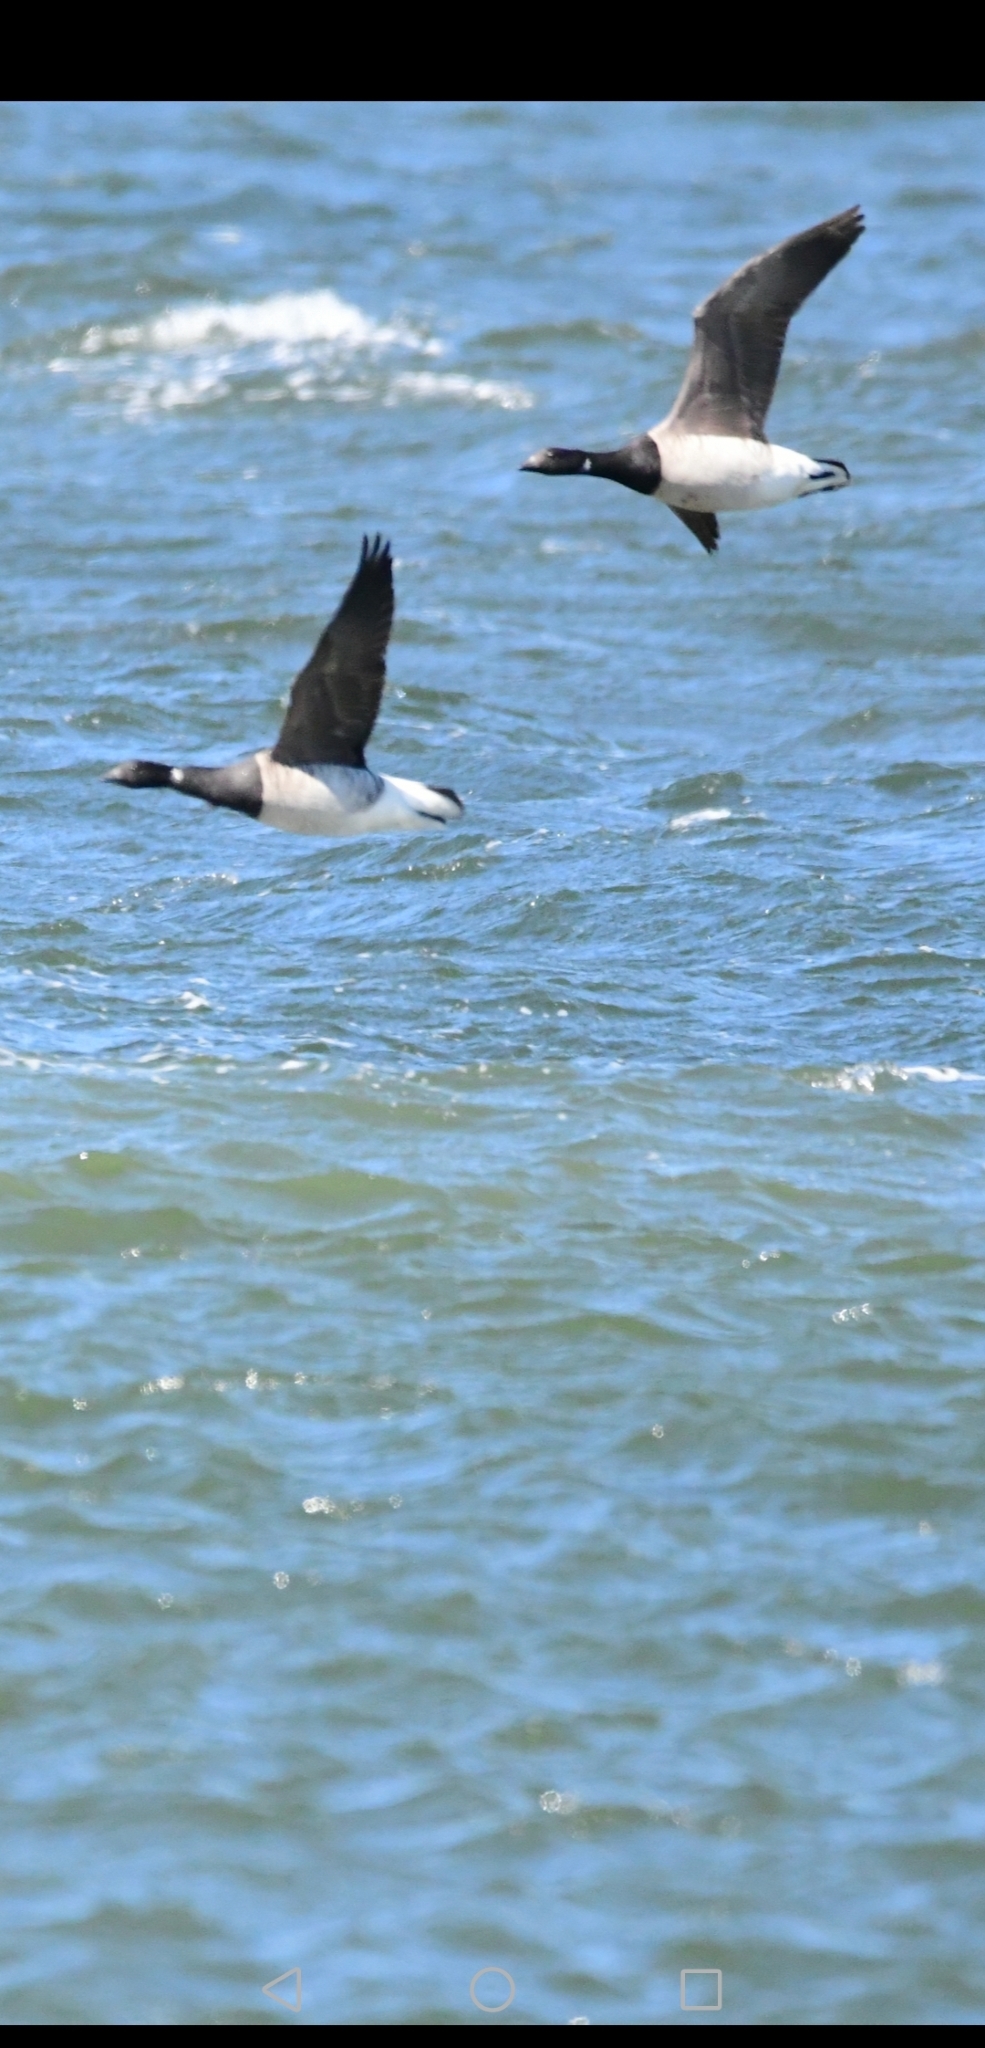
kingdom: Animalia
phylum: Chordata
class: Aves
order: Anseriformes
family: Anatidae
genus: Branta
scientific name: Branta bernicla
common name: Brant goose
